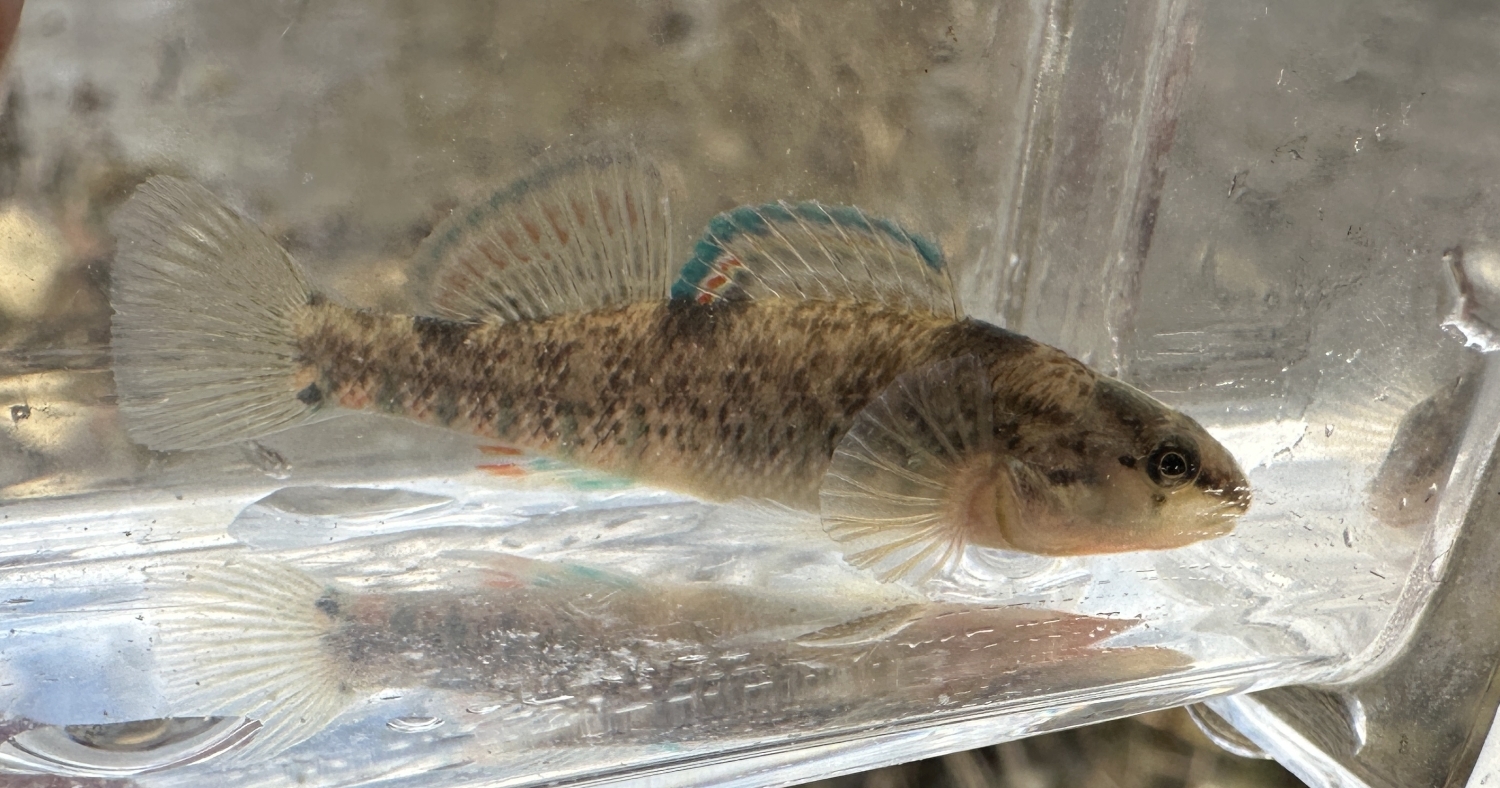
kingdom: Animalia
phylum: Chordata
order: Perciformes
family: Percidae
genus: Etheostoma
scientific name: Etheostoma caeruleum
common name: Rainbow darter
